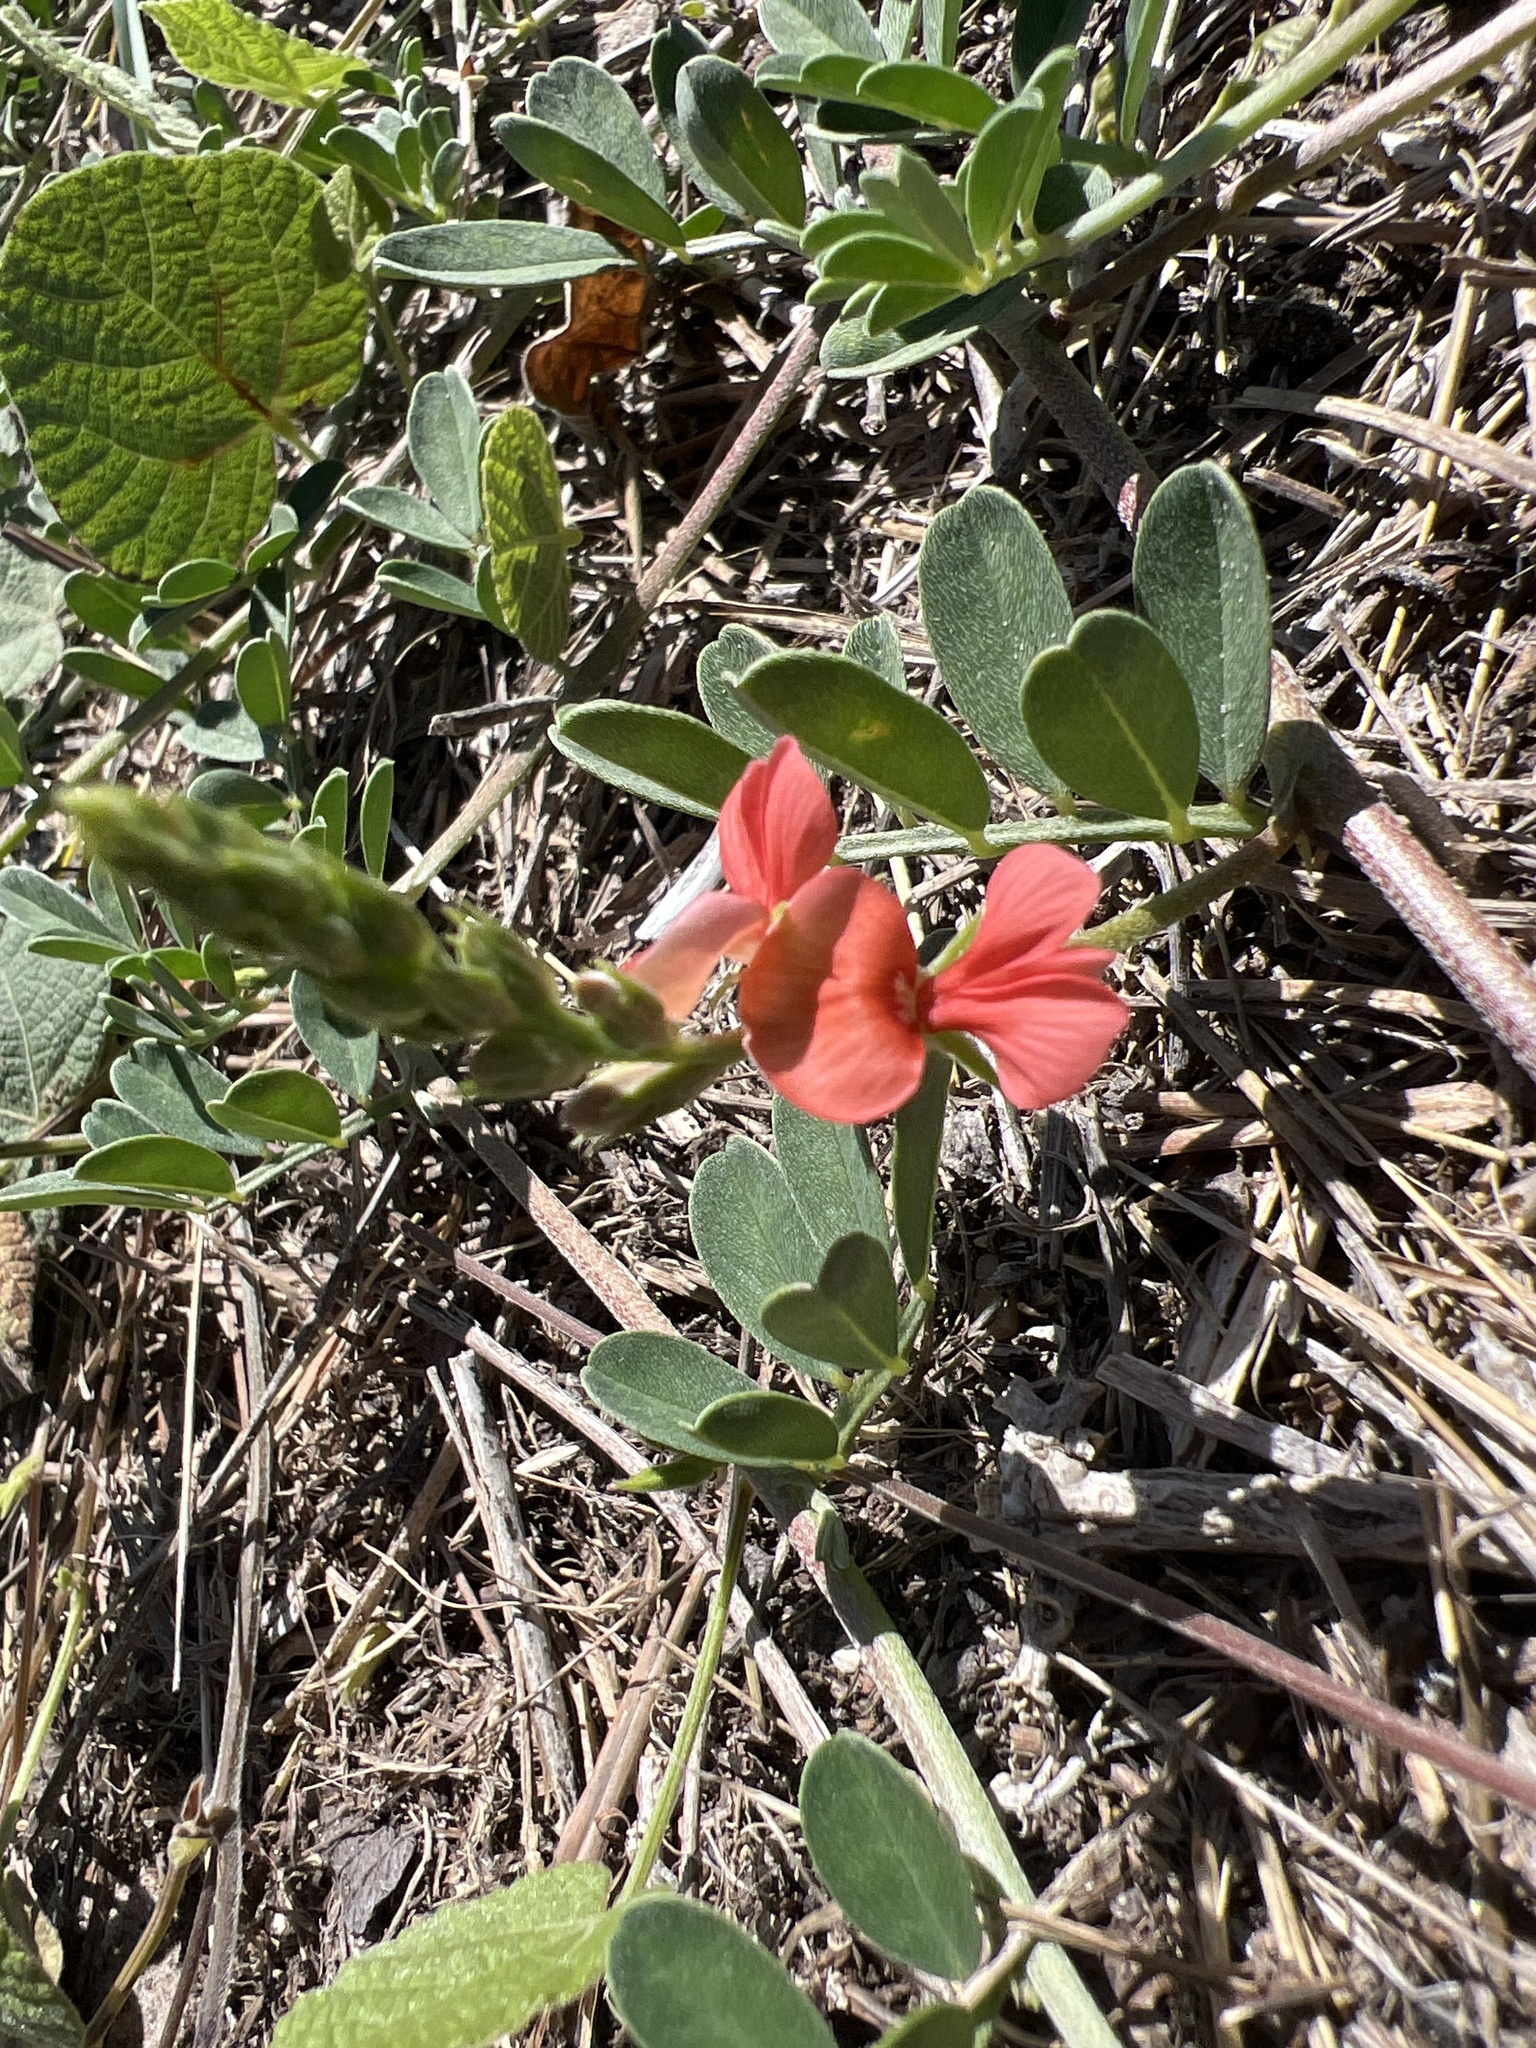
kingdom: Plantae
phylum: Tracheophyta
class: Magnoliopsida
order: Fabales
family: Fabaceae
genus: Indigofera
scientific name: Indigofera miniata
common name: Coast indigo
